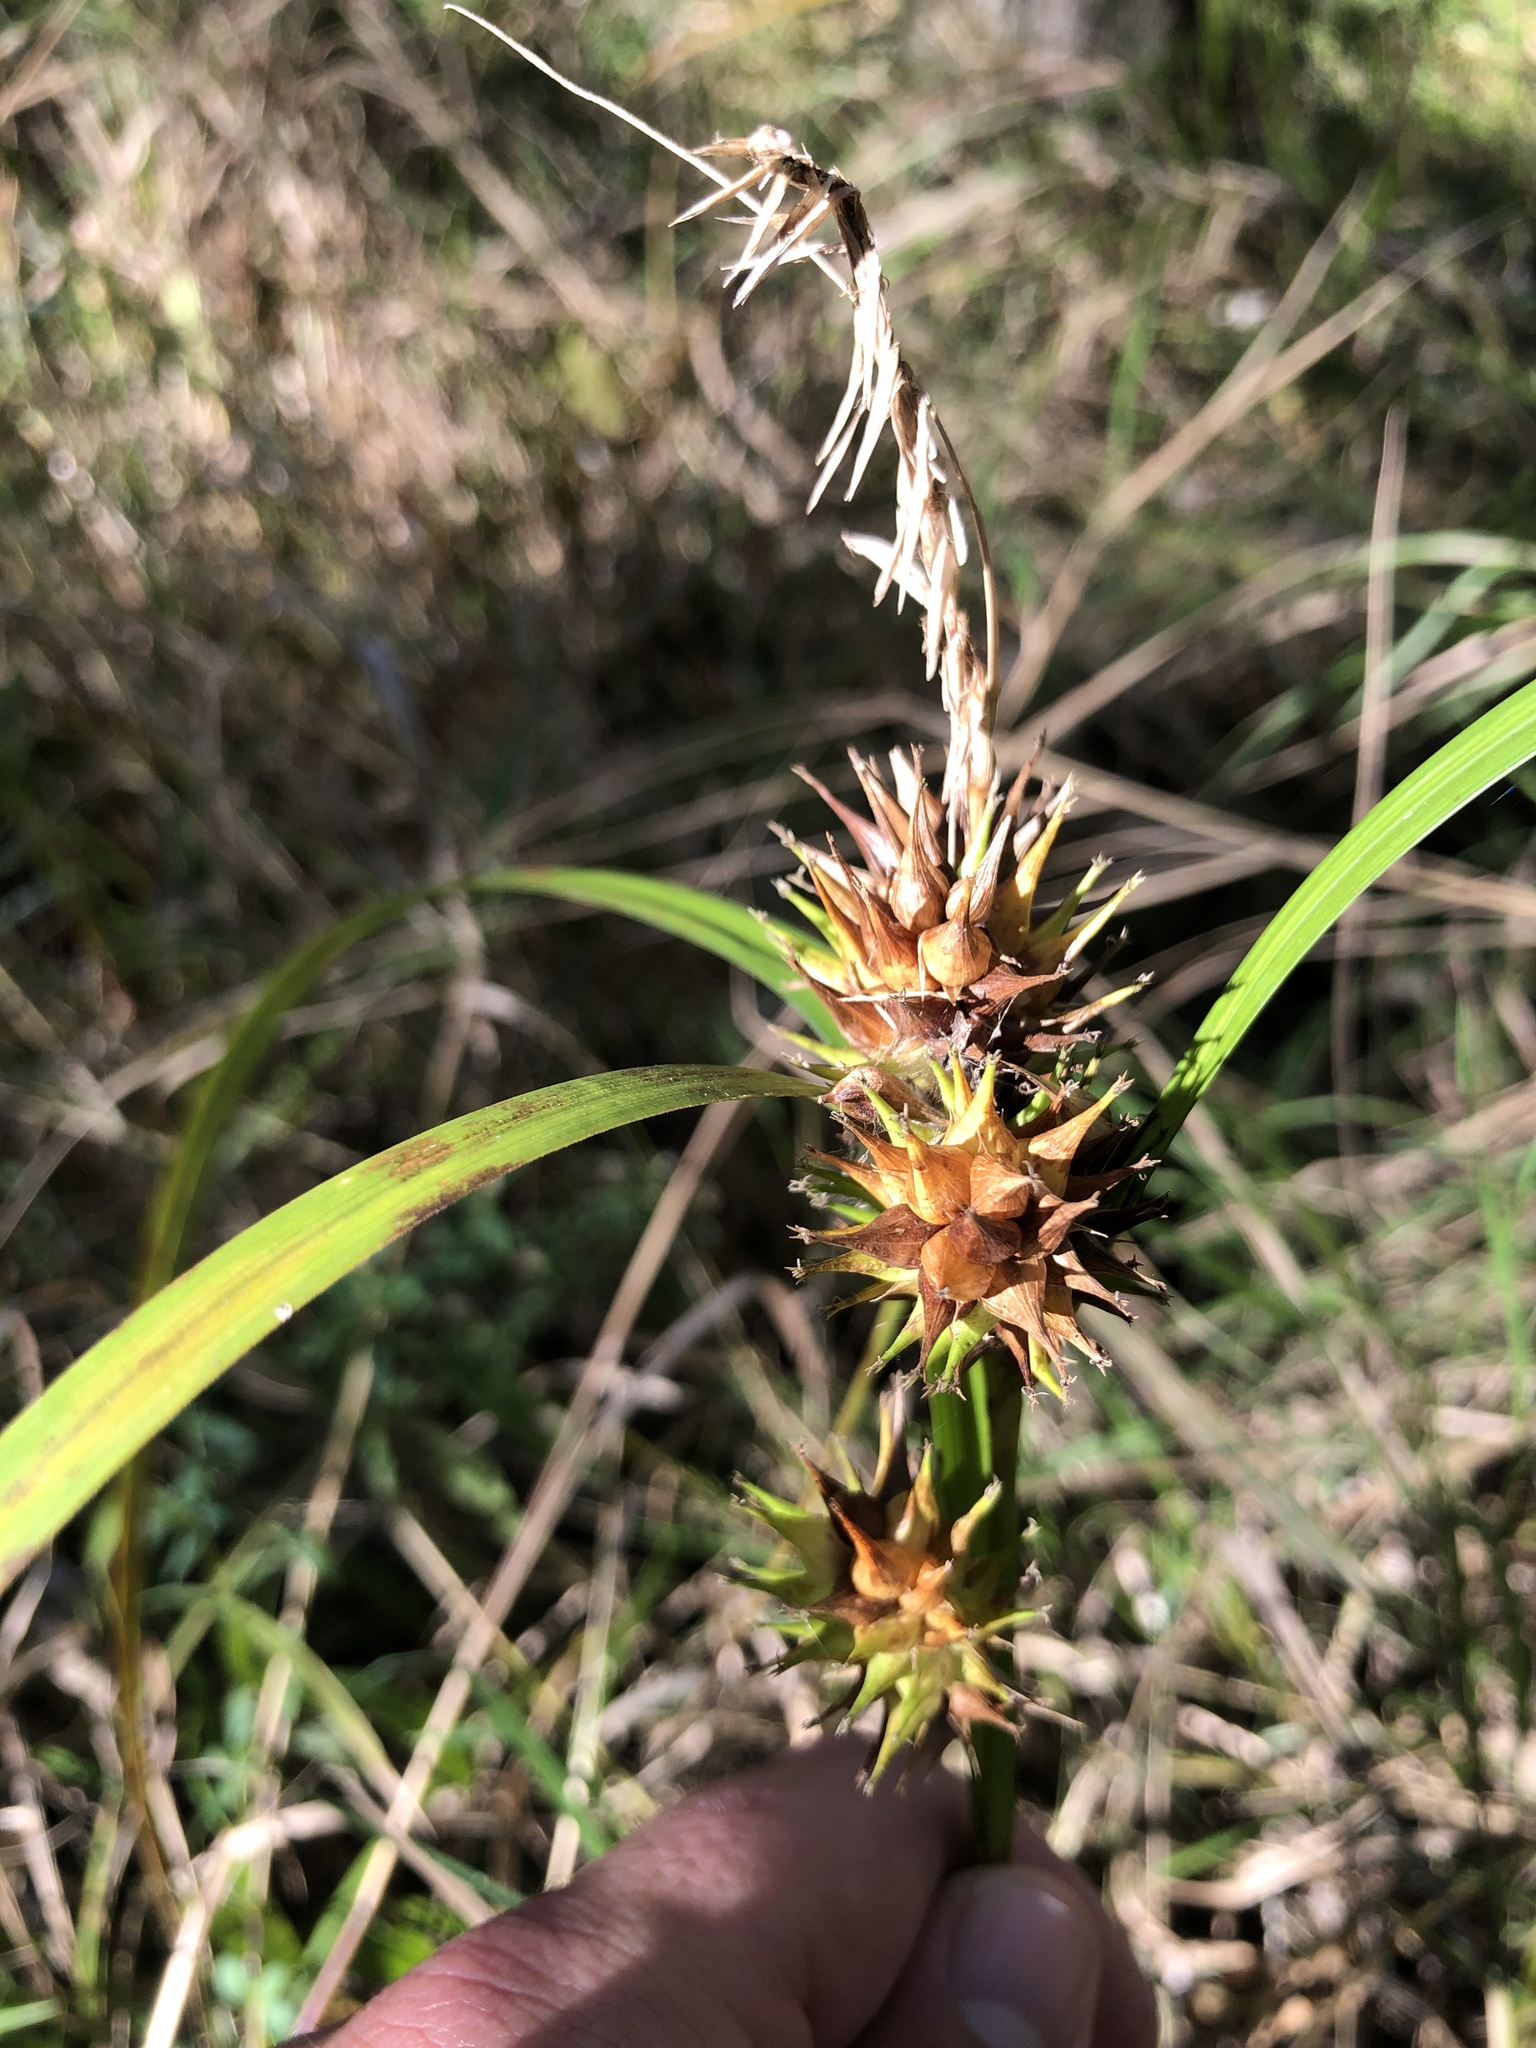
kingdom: Plantae
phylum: Tracheophyta
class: Liliopsida
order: Poales
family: Cyperaceae
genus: Carex
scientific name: Carex lupulina
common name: Hop sedge
